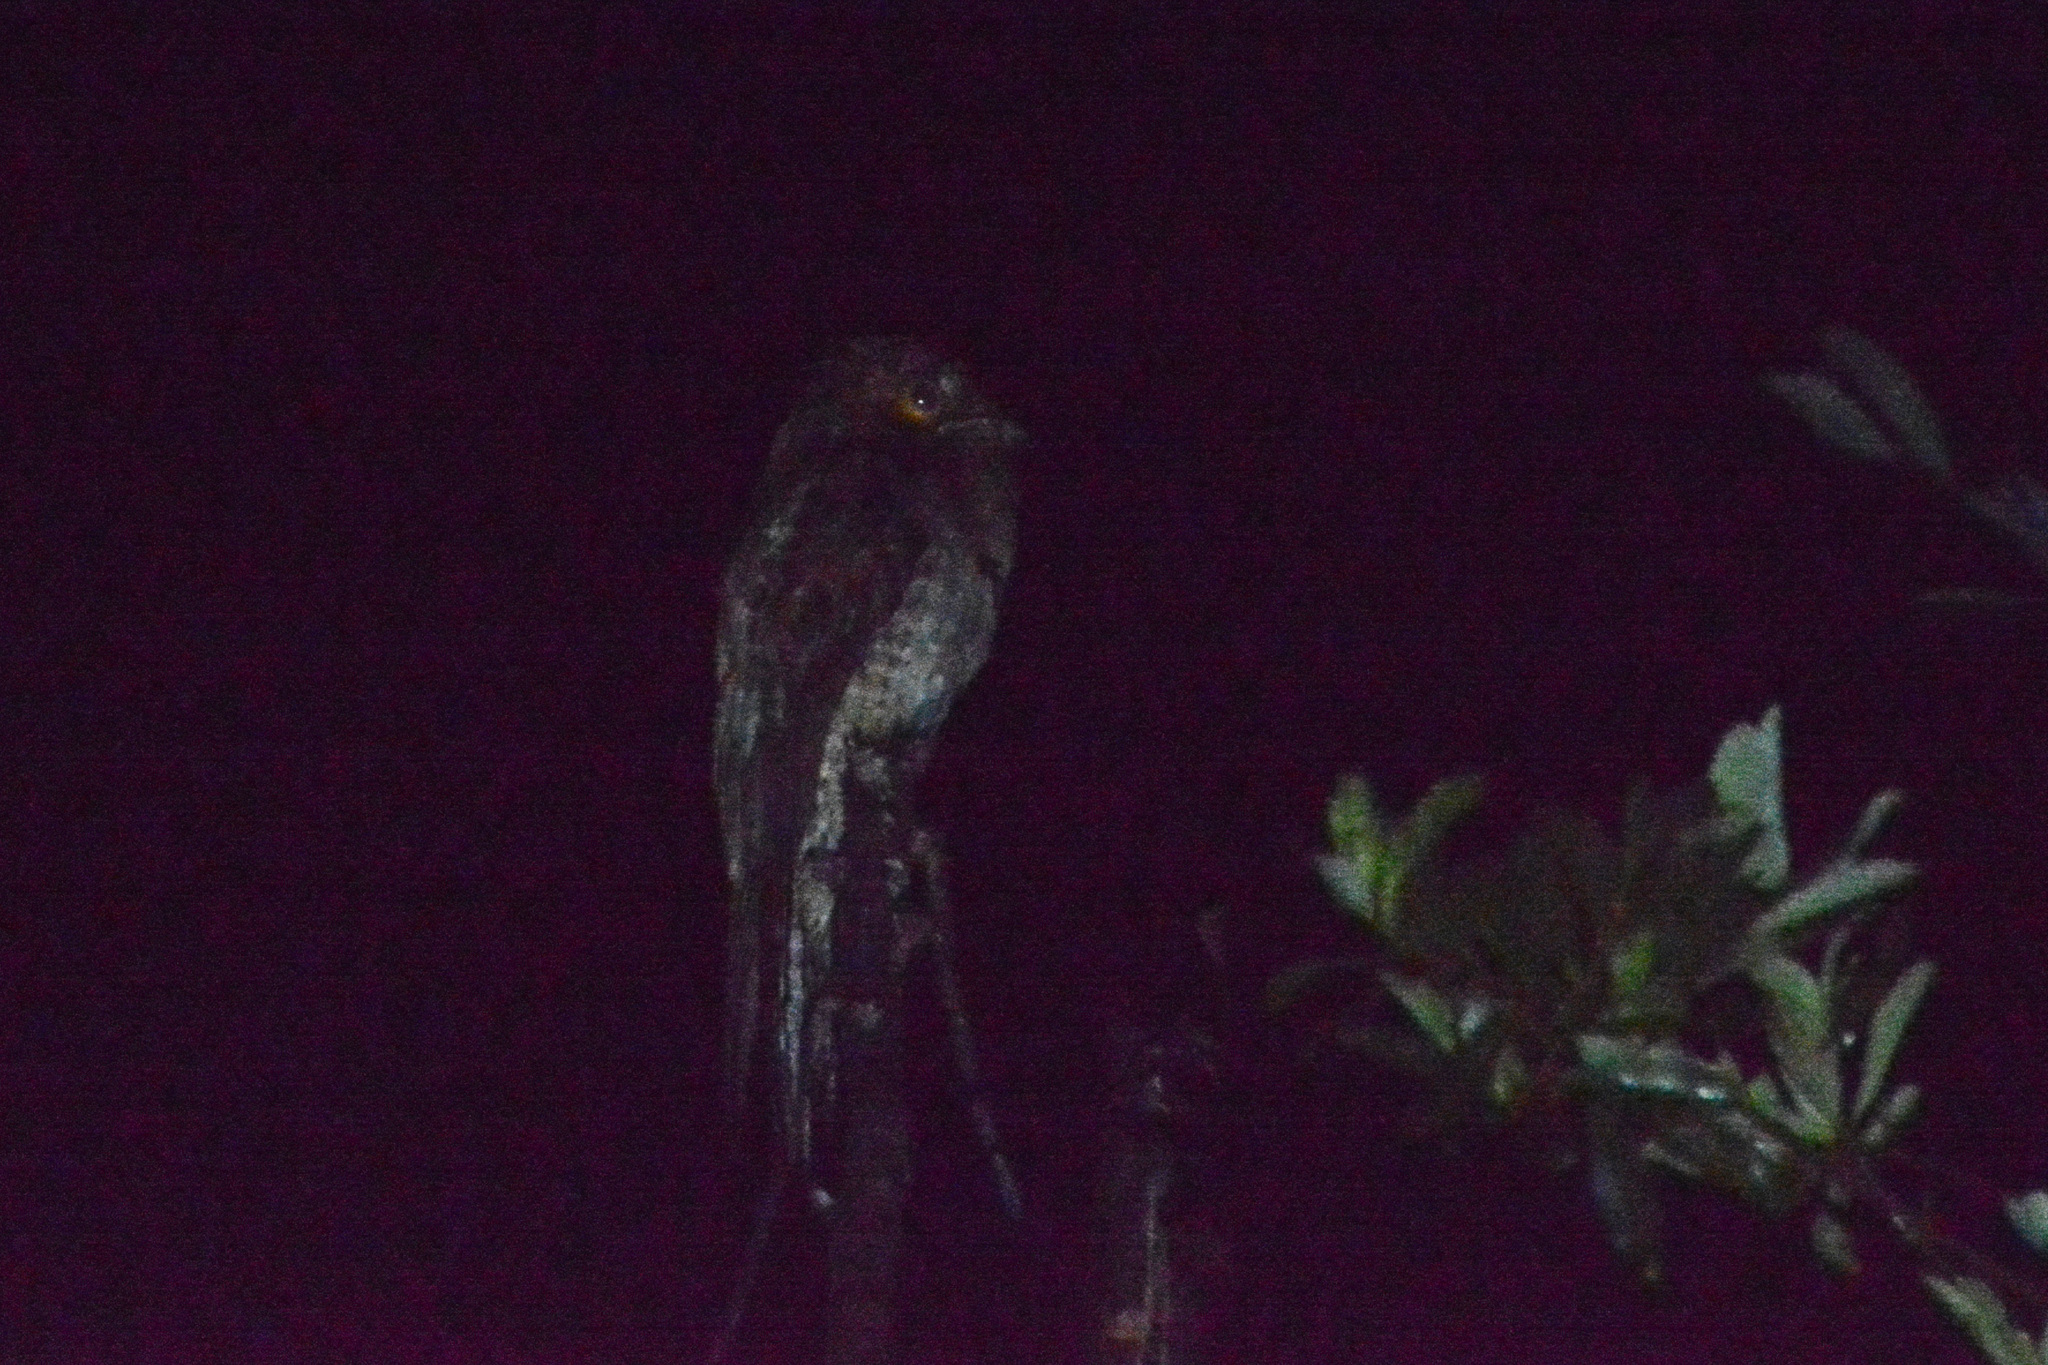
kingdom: Animalia
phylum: Chordata
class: Aves
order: Nyctibiiformes
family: Nyctibiidae
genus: Nyctibius
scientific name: Nyctibius griseus
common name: Common potoo
